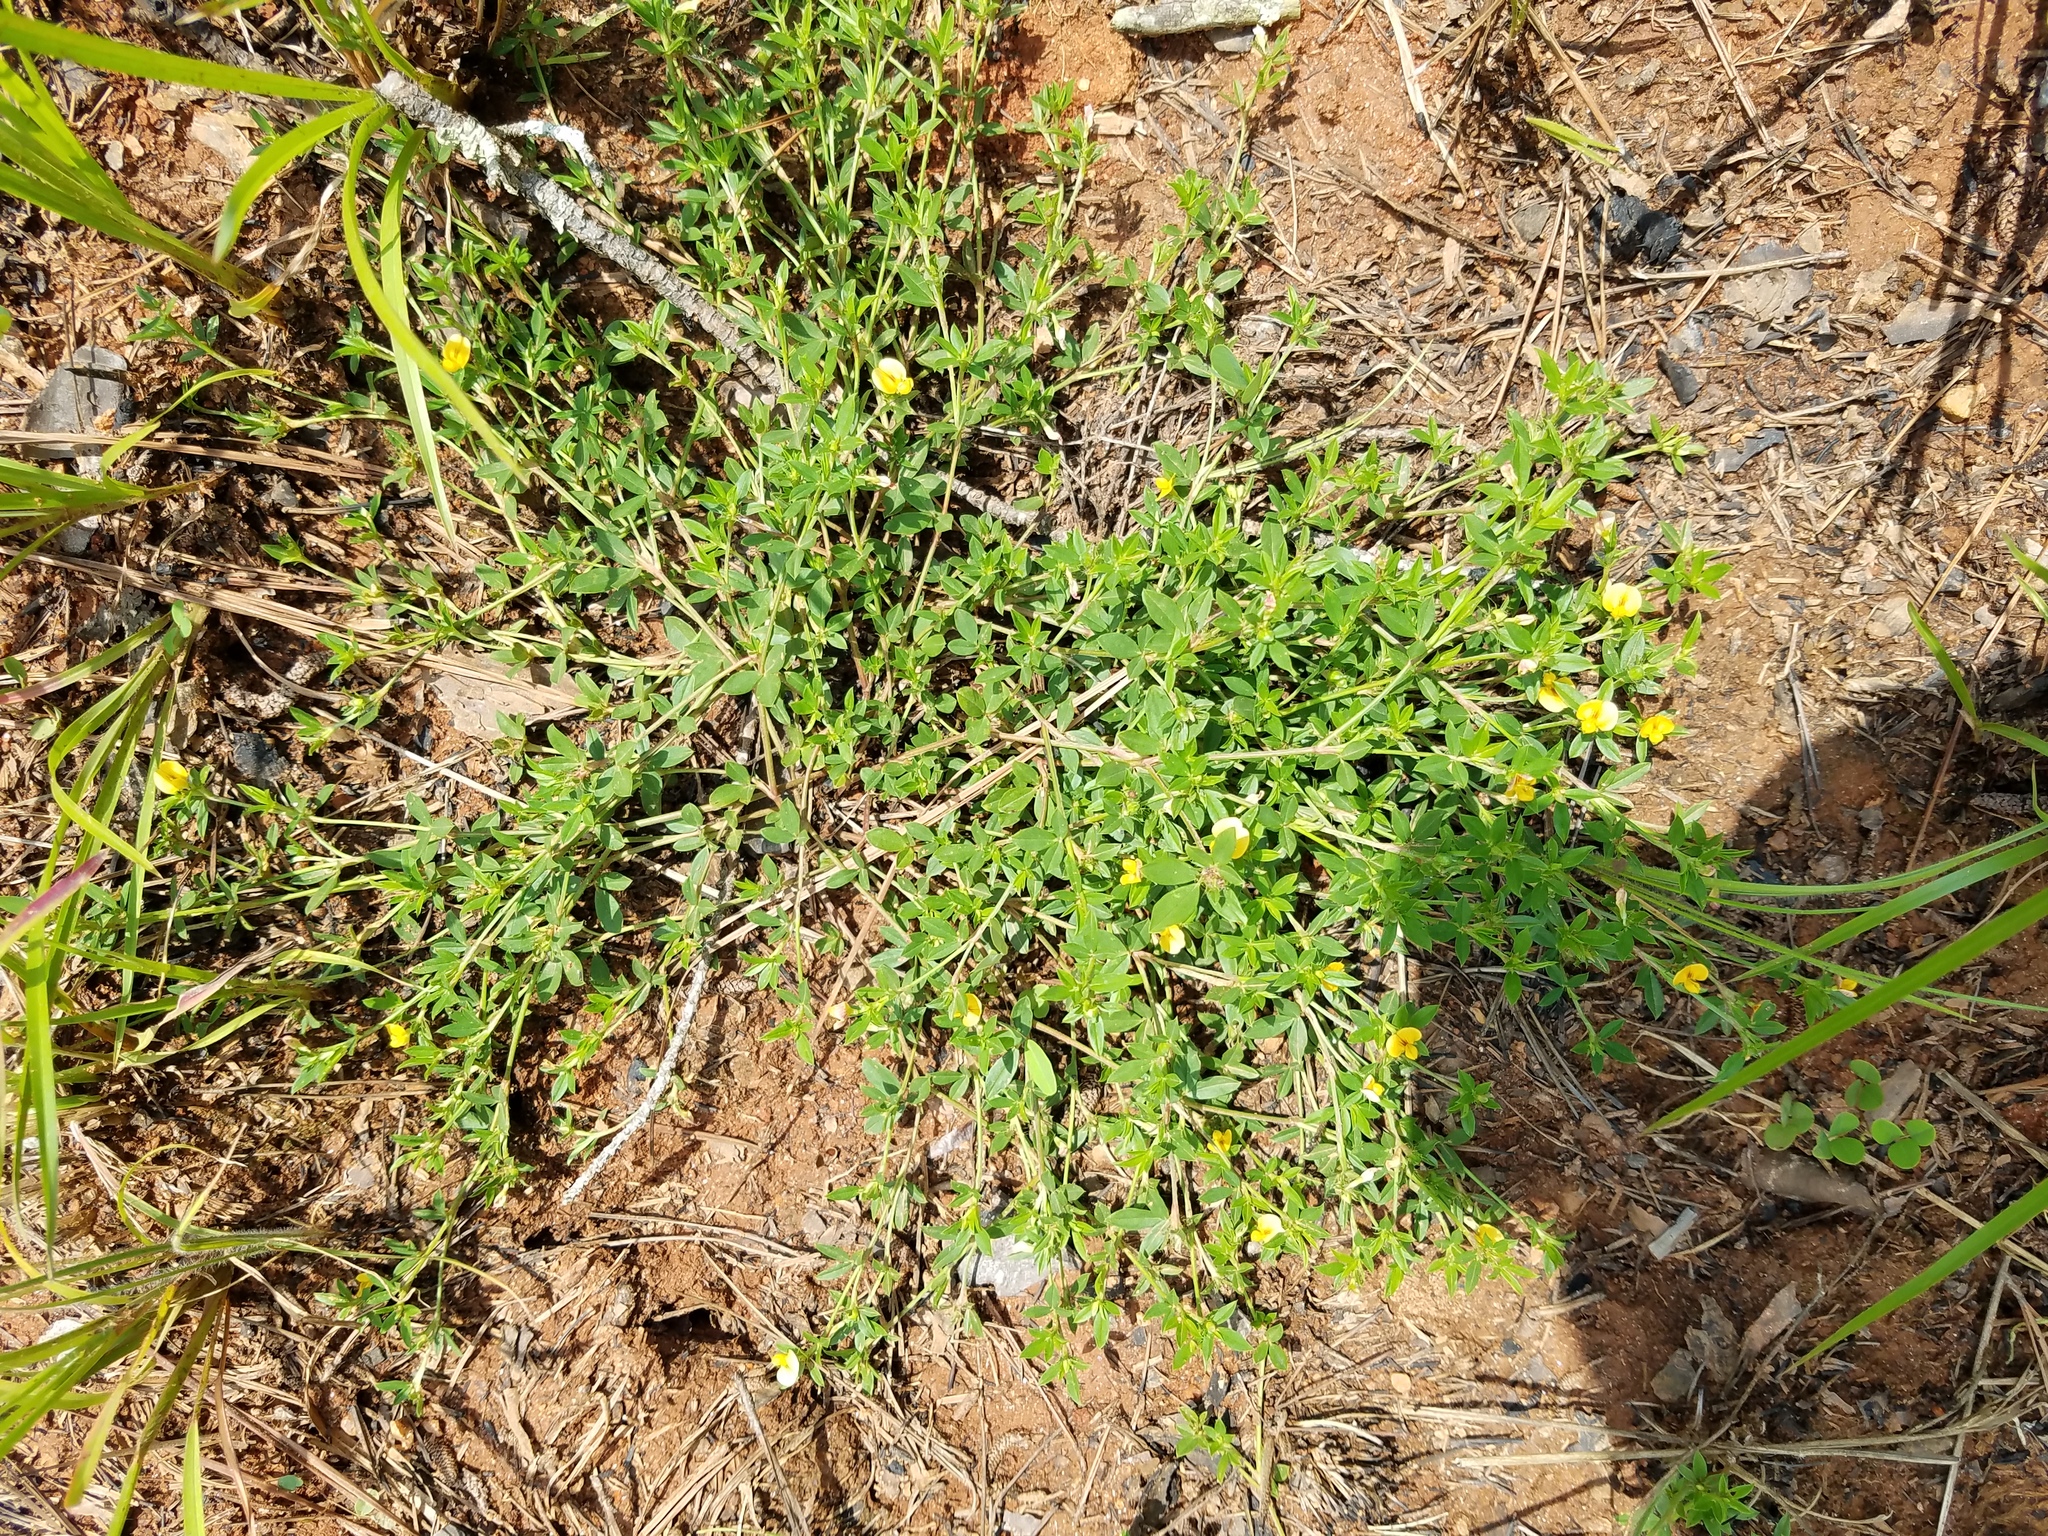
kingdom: Plantae
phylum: Tracheophyta
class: Magnoliopsida
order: Fabales
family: Fabaceae
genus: Stylosanthes
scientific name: Stylosanthes biflora
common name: Two-flower pencil-flower
